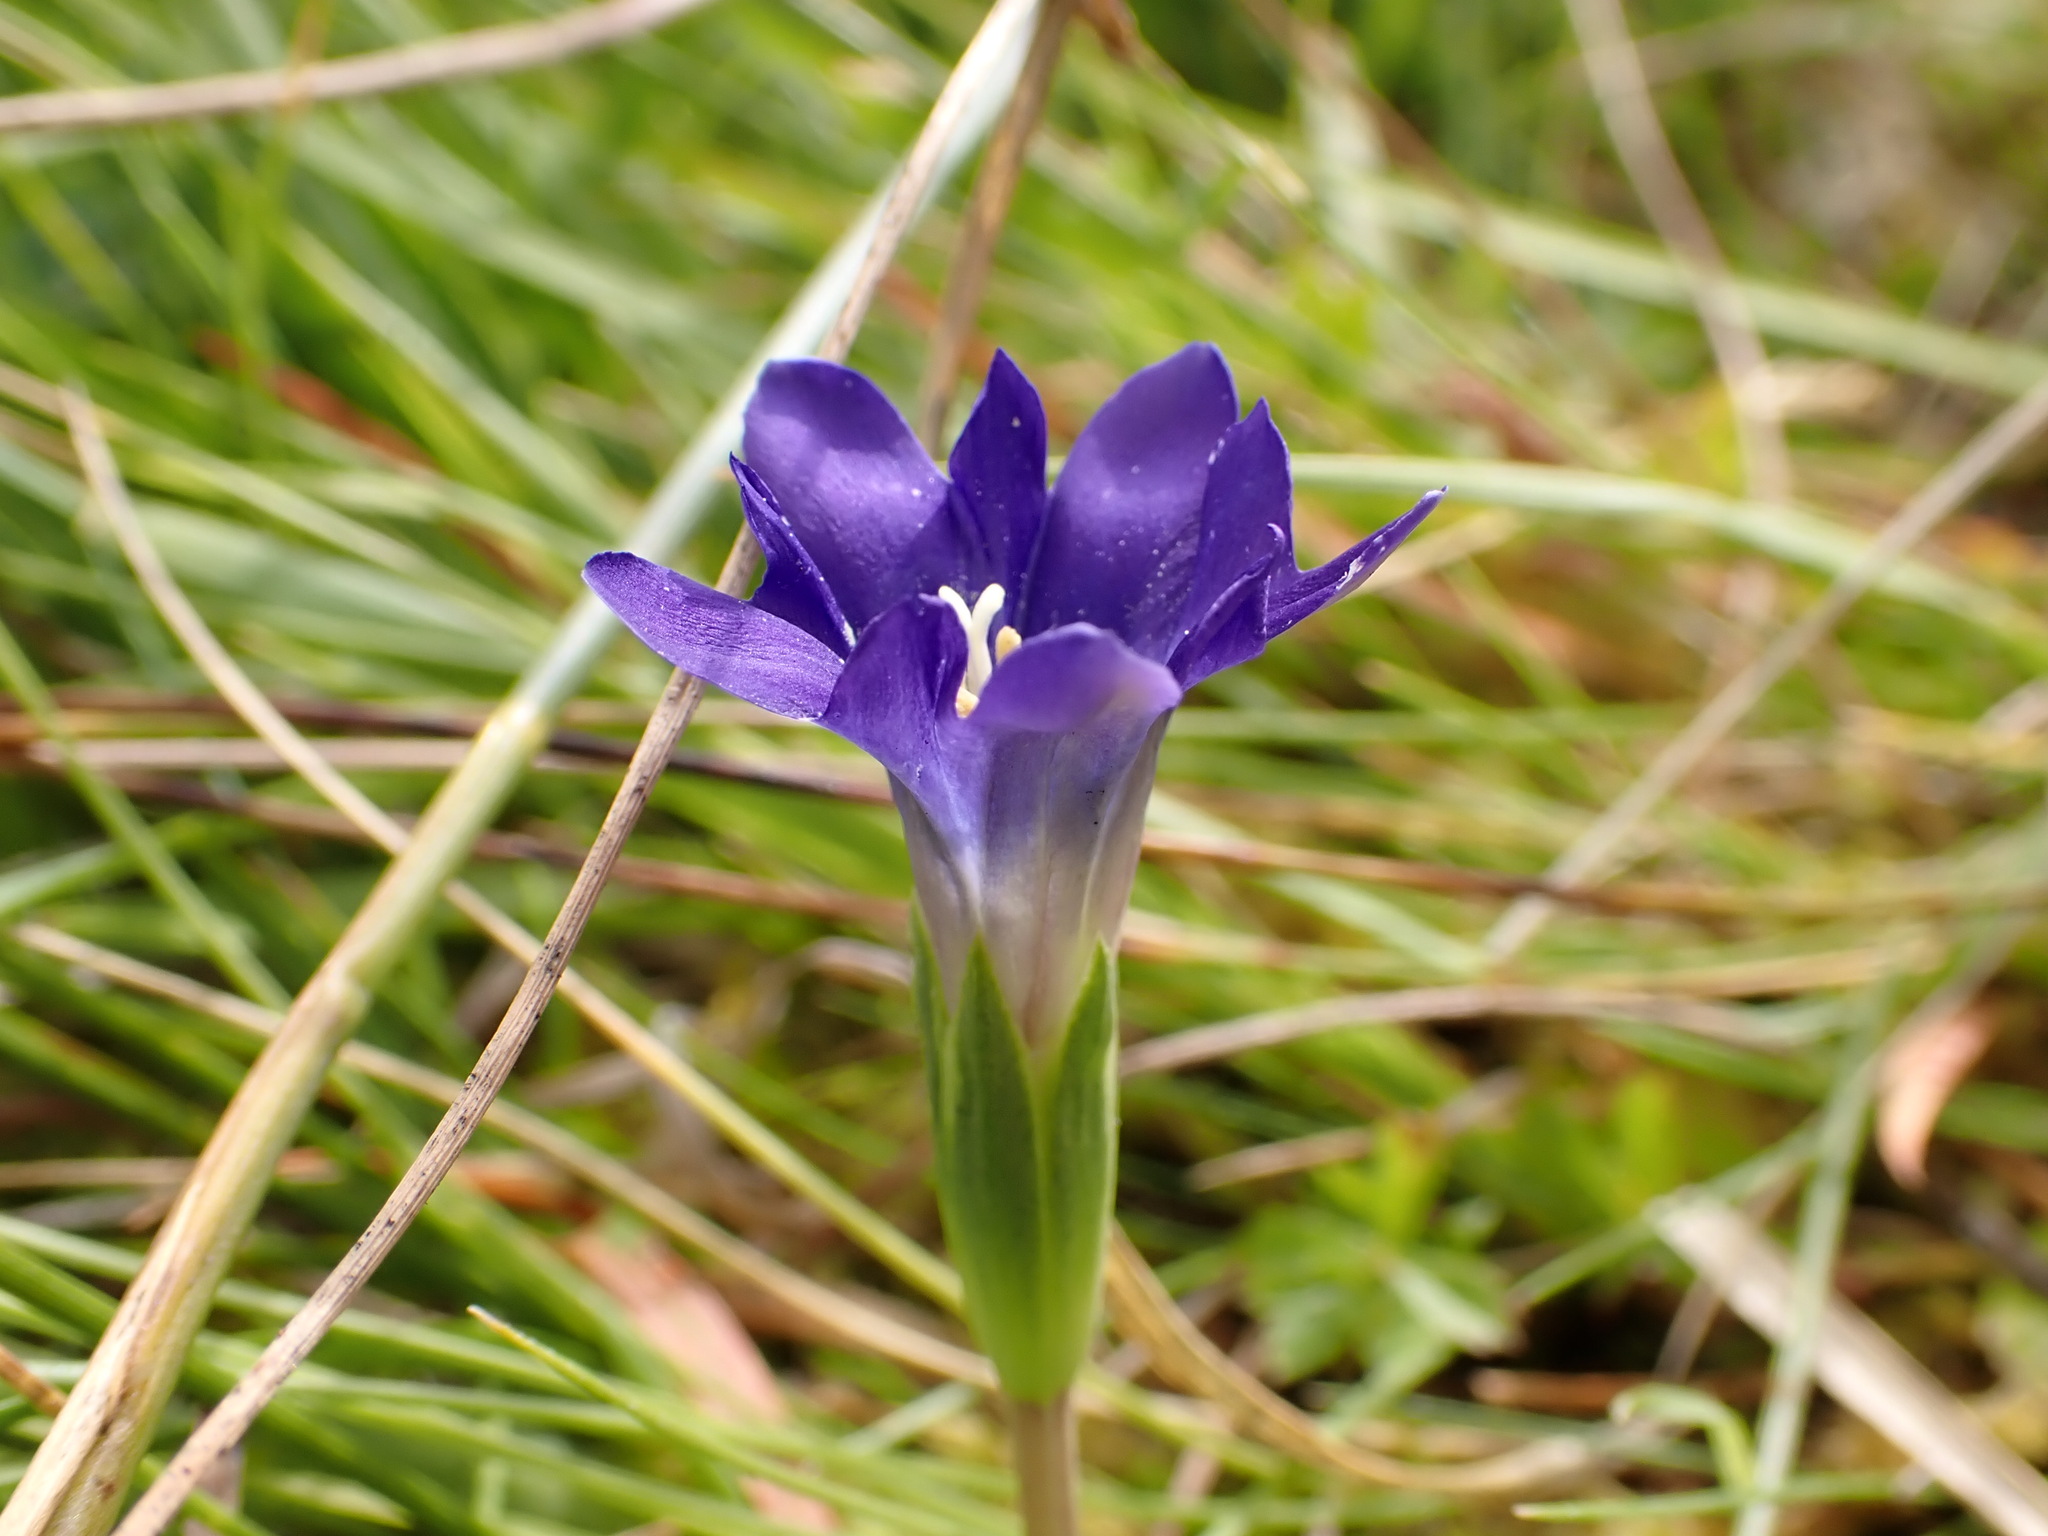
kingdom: Plantae
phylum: Tracheophyta
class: Magnoliopsida
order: Gentianales
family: Gentianaceae
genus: Gentiana
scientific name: Gentiana pyrenaica
